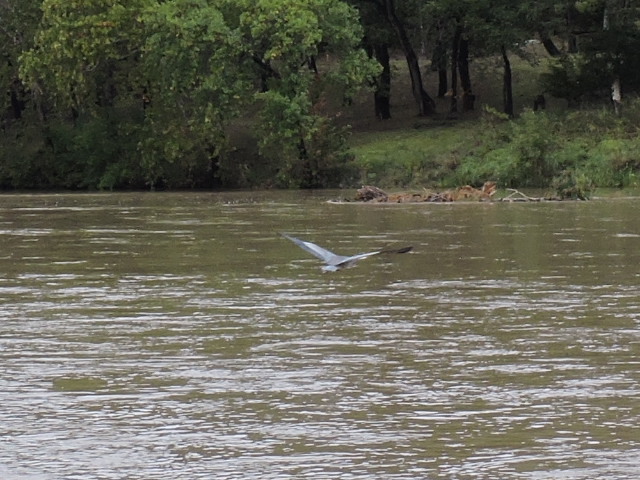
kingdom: Animalia
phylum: Chordata
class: Aves
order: Pelecaniformes
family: Ardeidae
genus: Ardea
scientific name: Ardea herodias
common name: Great blue heron
